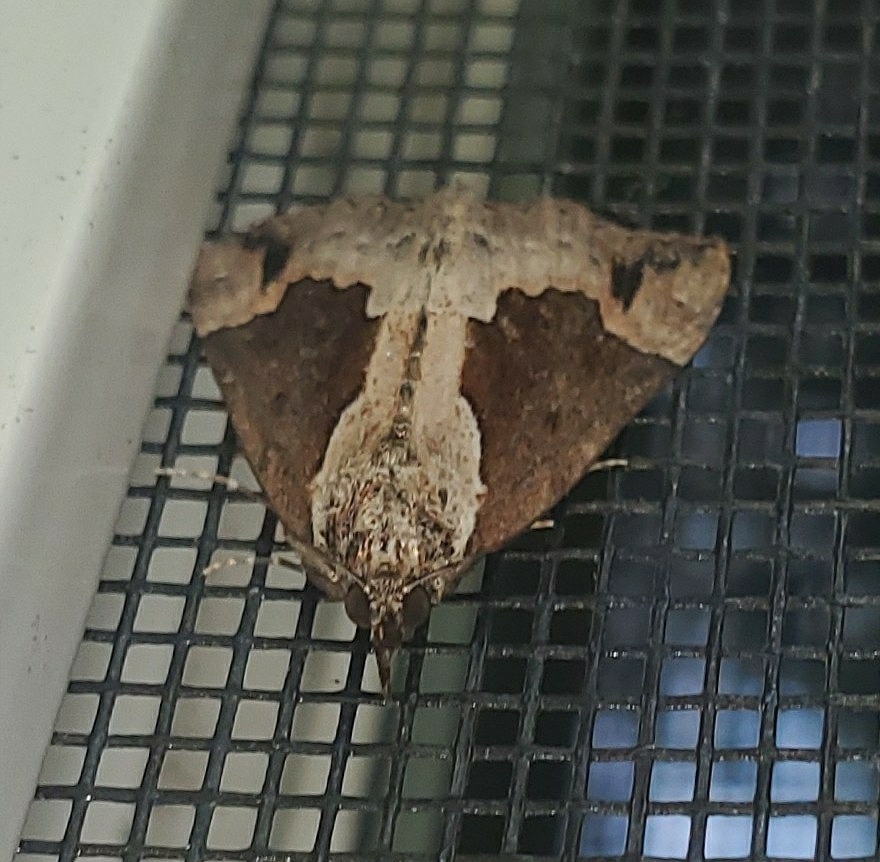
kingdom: Animalia
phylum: Arthropoda
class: Insecta
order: Lepidoptera
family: Erebidae
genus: Hypena
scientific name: Hypena baltimoralis
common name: Baltimore snout
